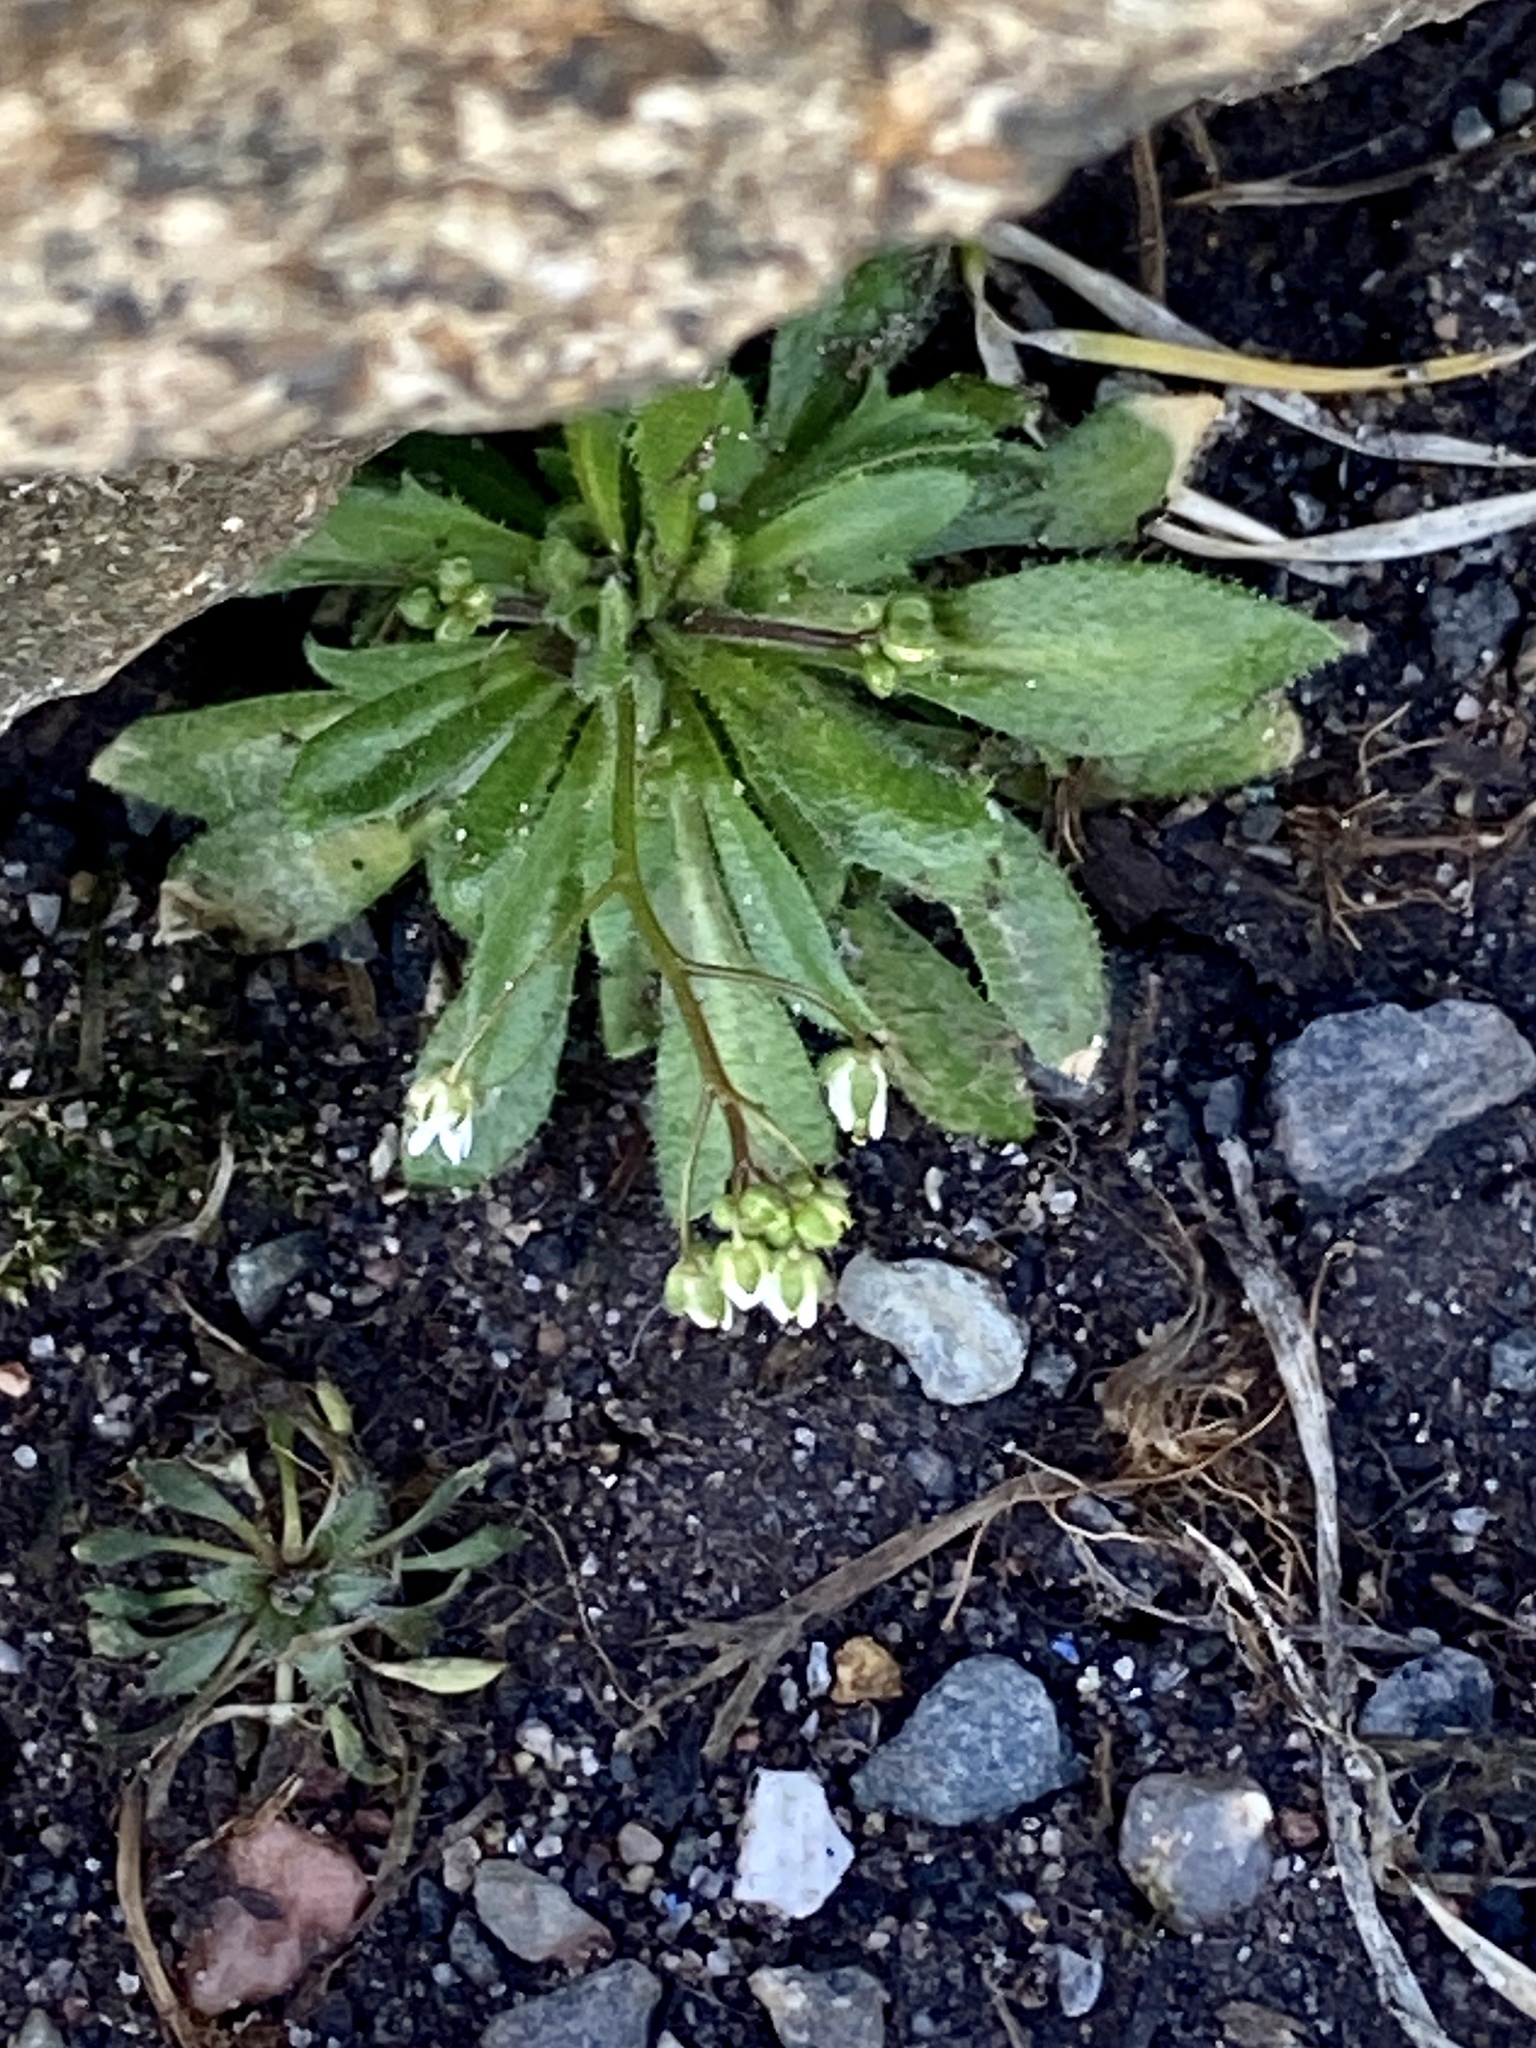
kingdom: Plantae
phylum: Tracheophyta
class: Magnoliopsida
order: Brassicales
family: Brassicaceae
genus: Draba
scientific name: Draba verna
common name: Spring draba
